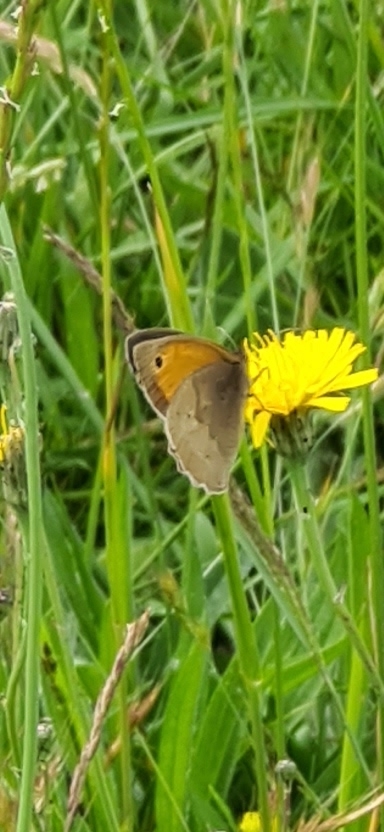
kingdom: Animalia
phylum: Arthropoda
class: Insecta
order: Lepidoptera
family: Nymphalidae
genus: Maniola
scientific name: Maniola jurtina
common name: Meadow brown
